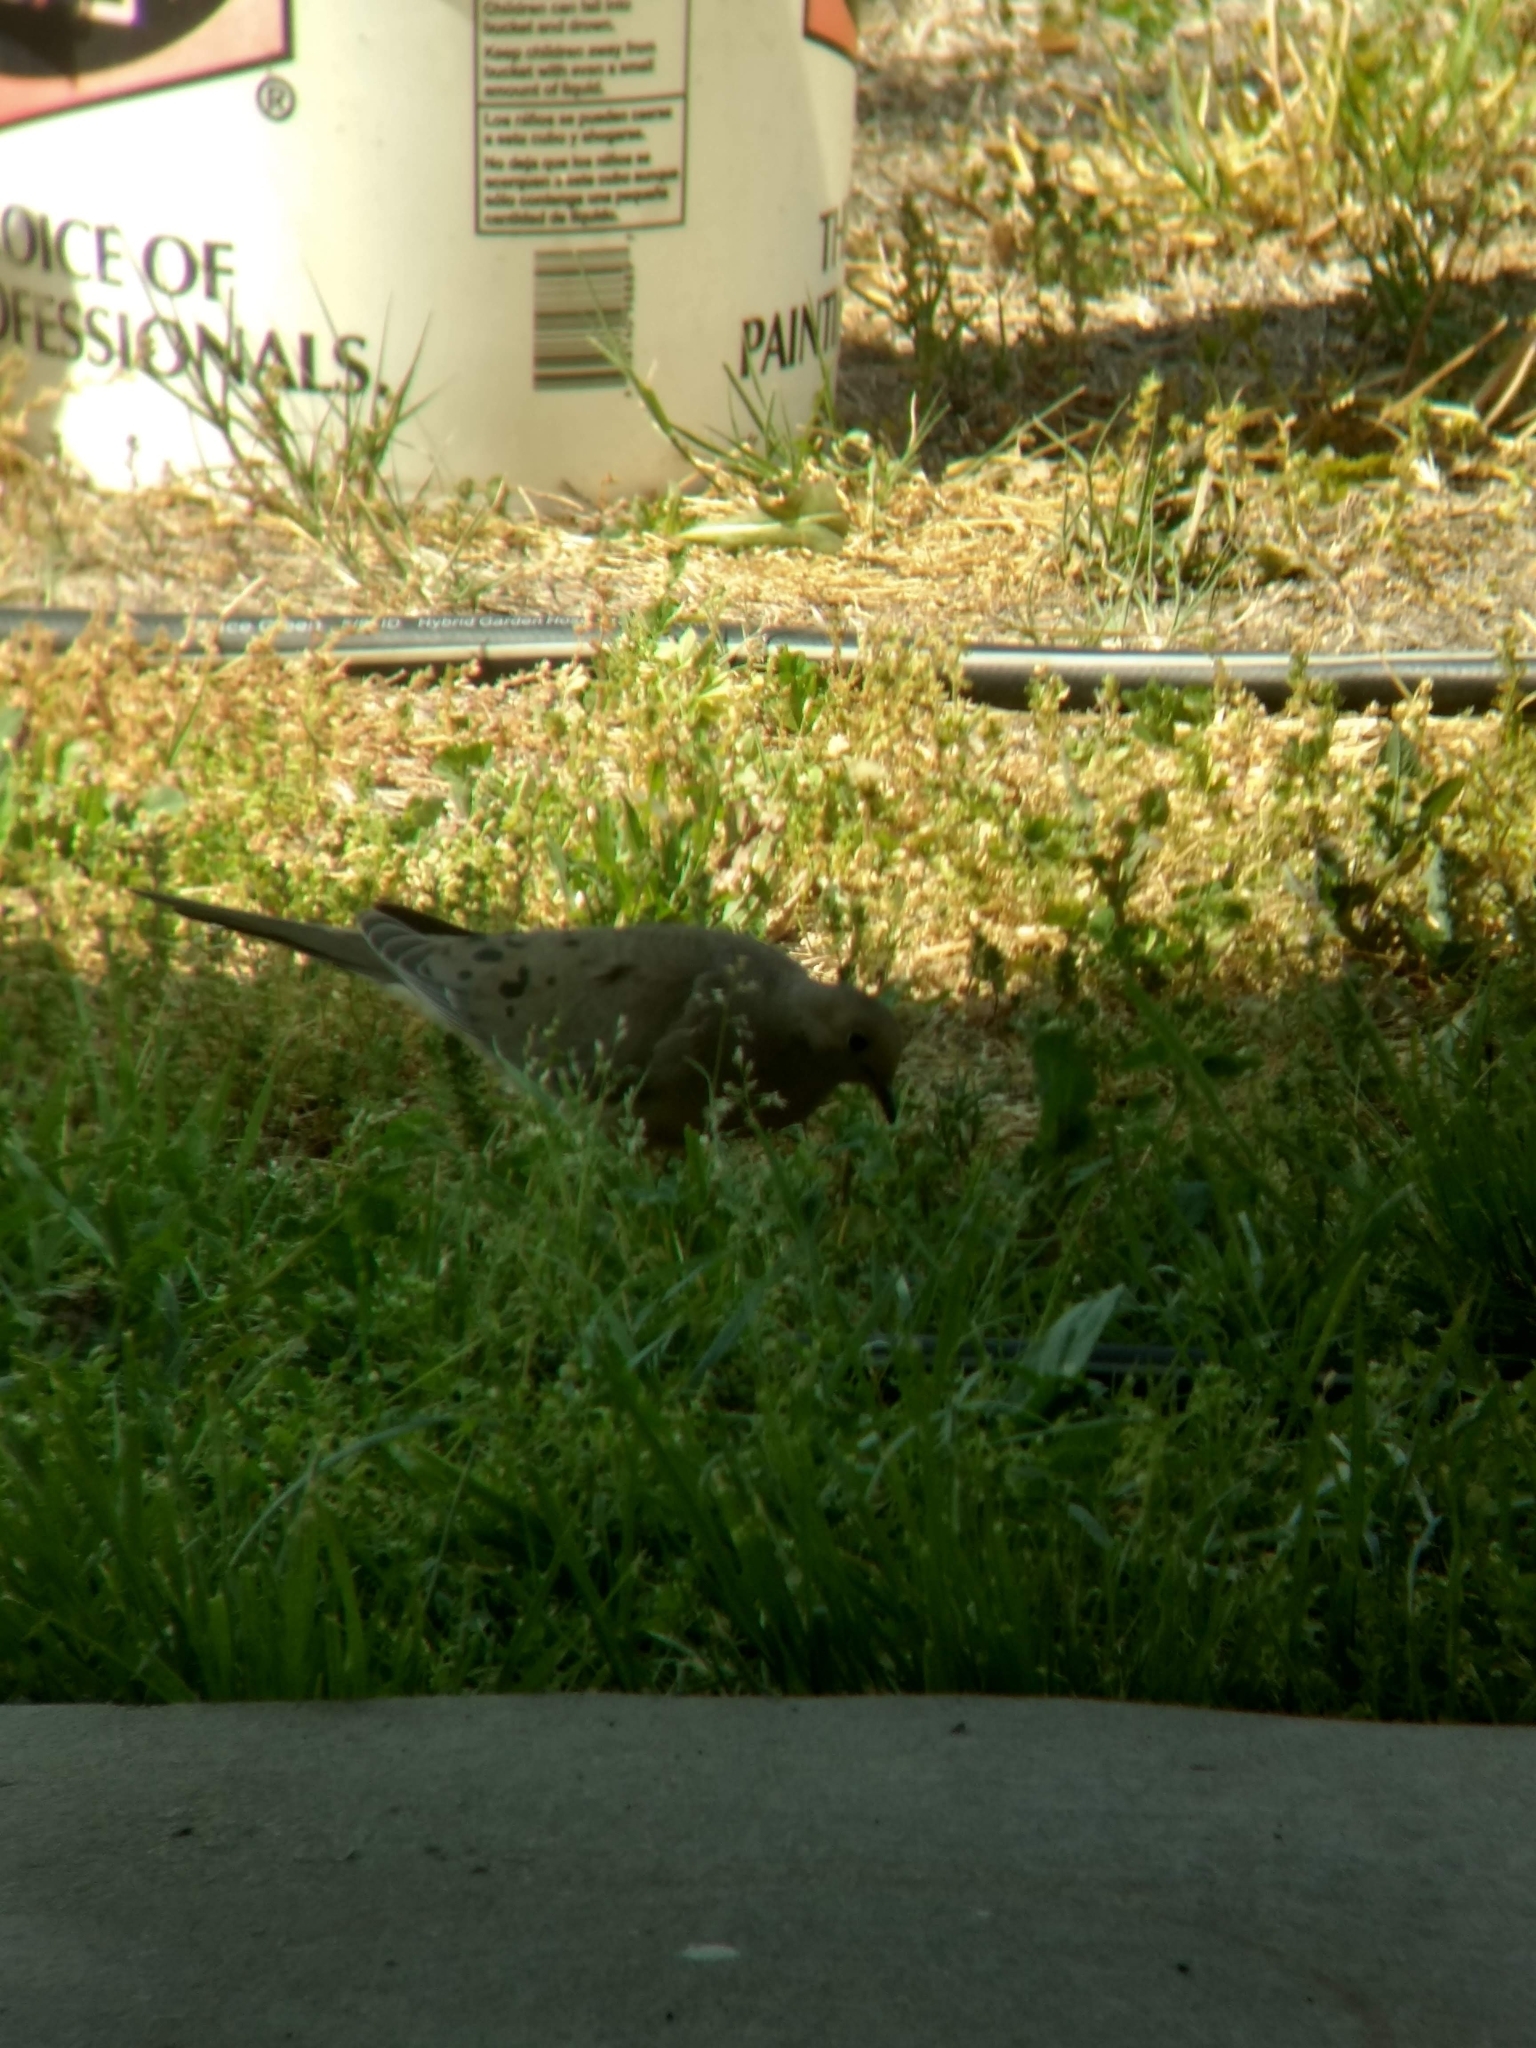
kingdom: Animalia
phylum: Chordata
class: Aves
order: Columbiformes
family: Columbidae
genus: Zenaida
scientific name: Zenaida macroura
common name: Mourning dove
